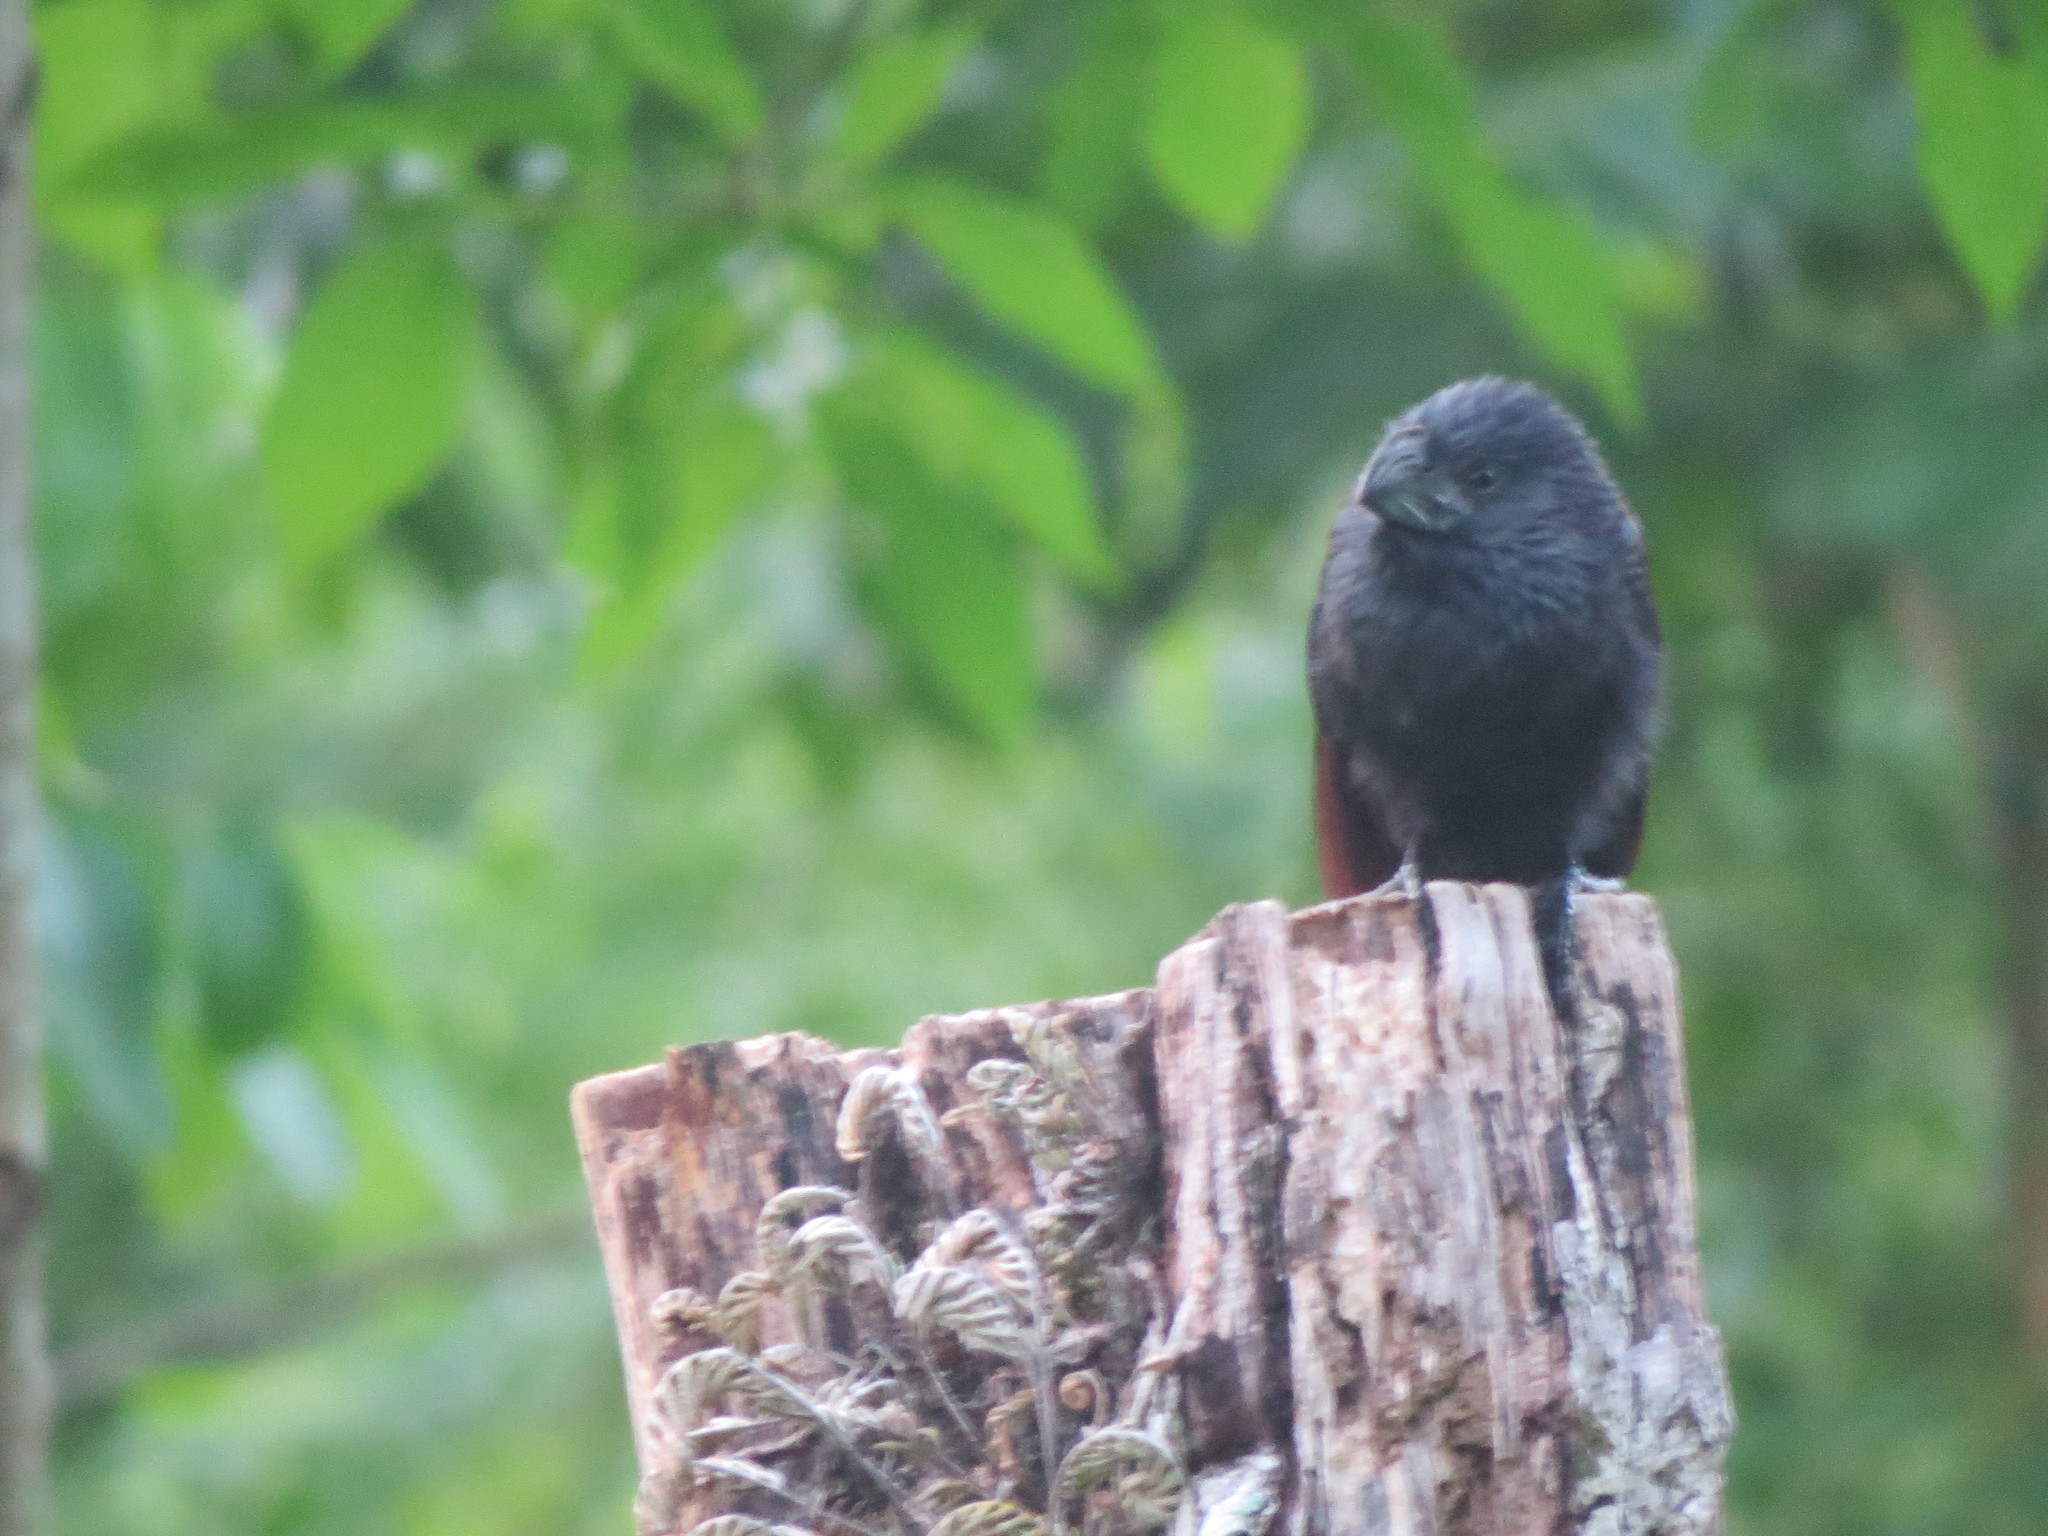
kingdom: Animalia
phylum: Chordata
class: Aves
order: Cuculiformes
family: Cuculidae
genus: Crotophaga
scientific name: Crotophaga sulcirostris
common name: Groove-billed ani
